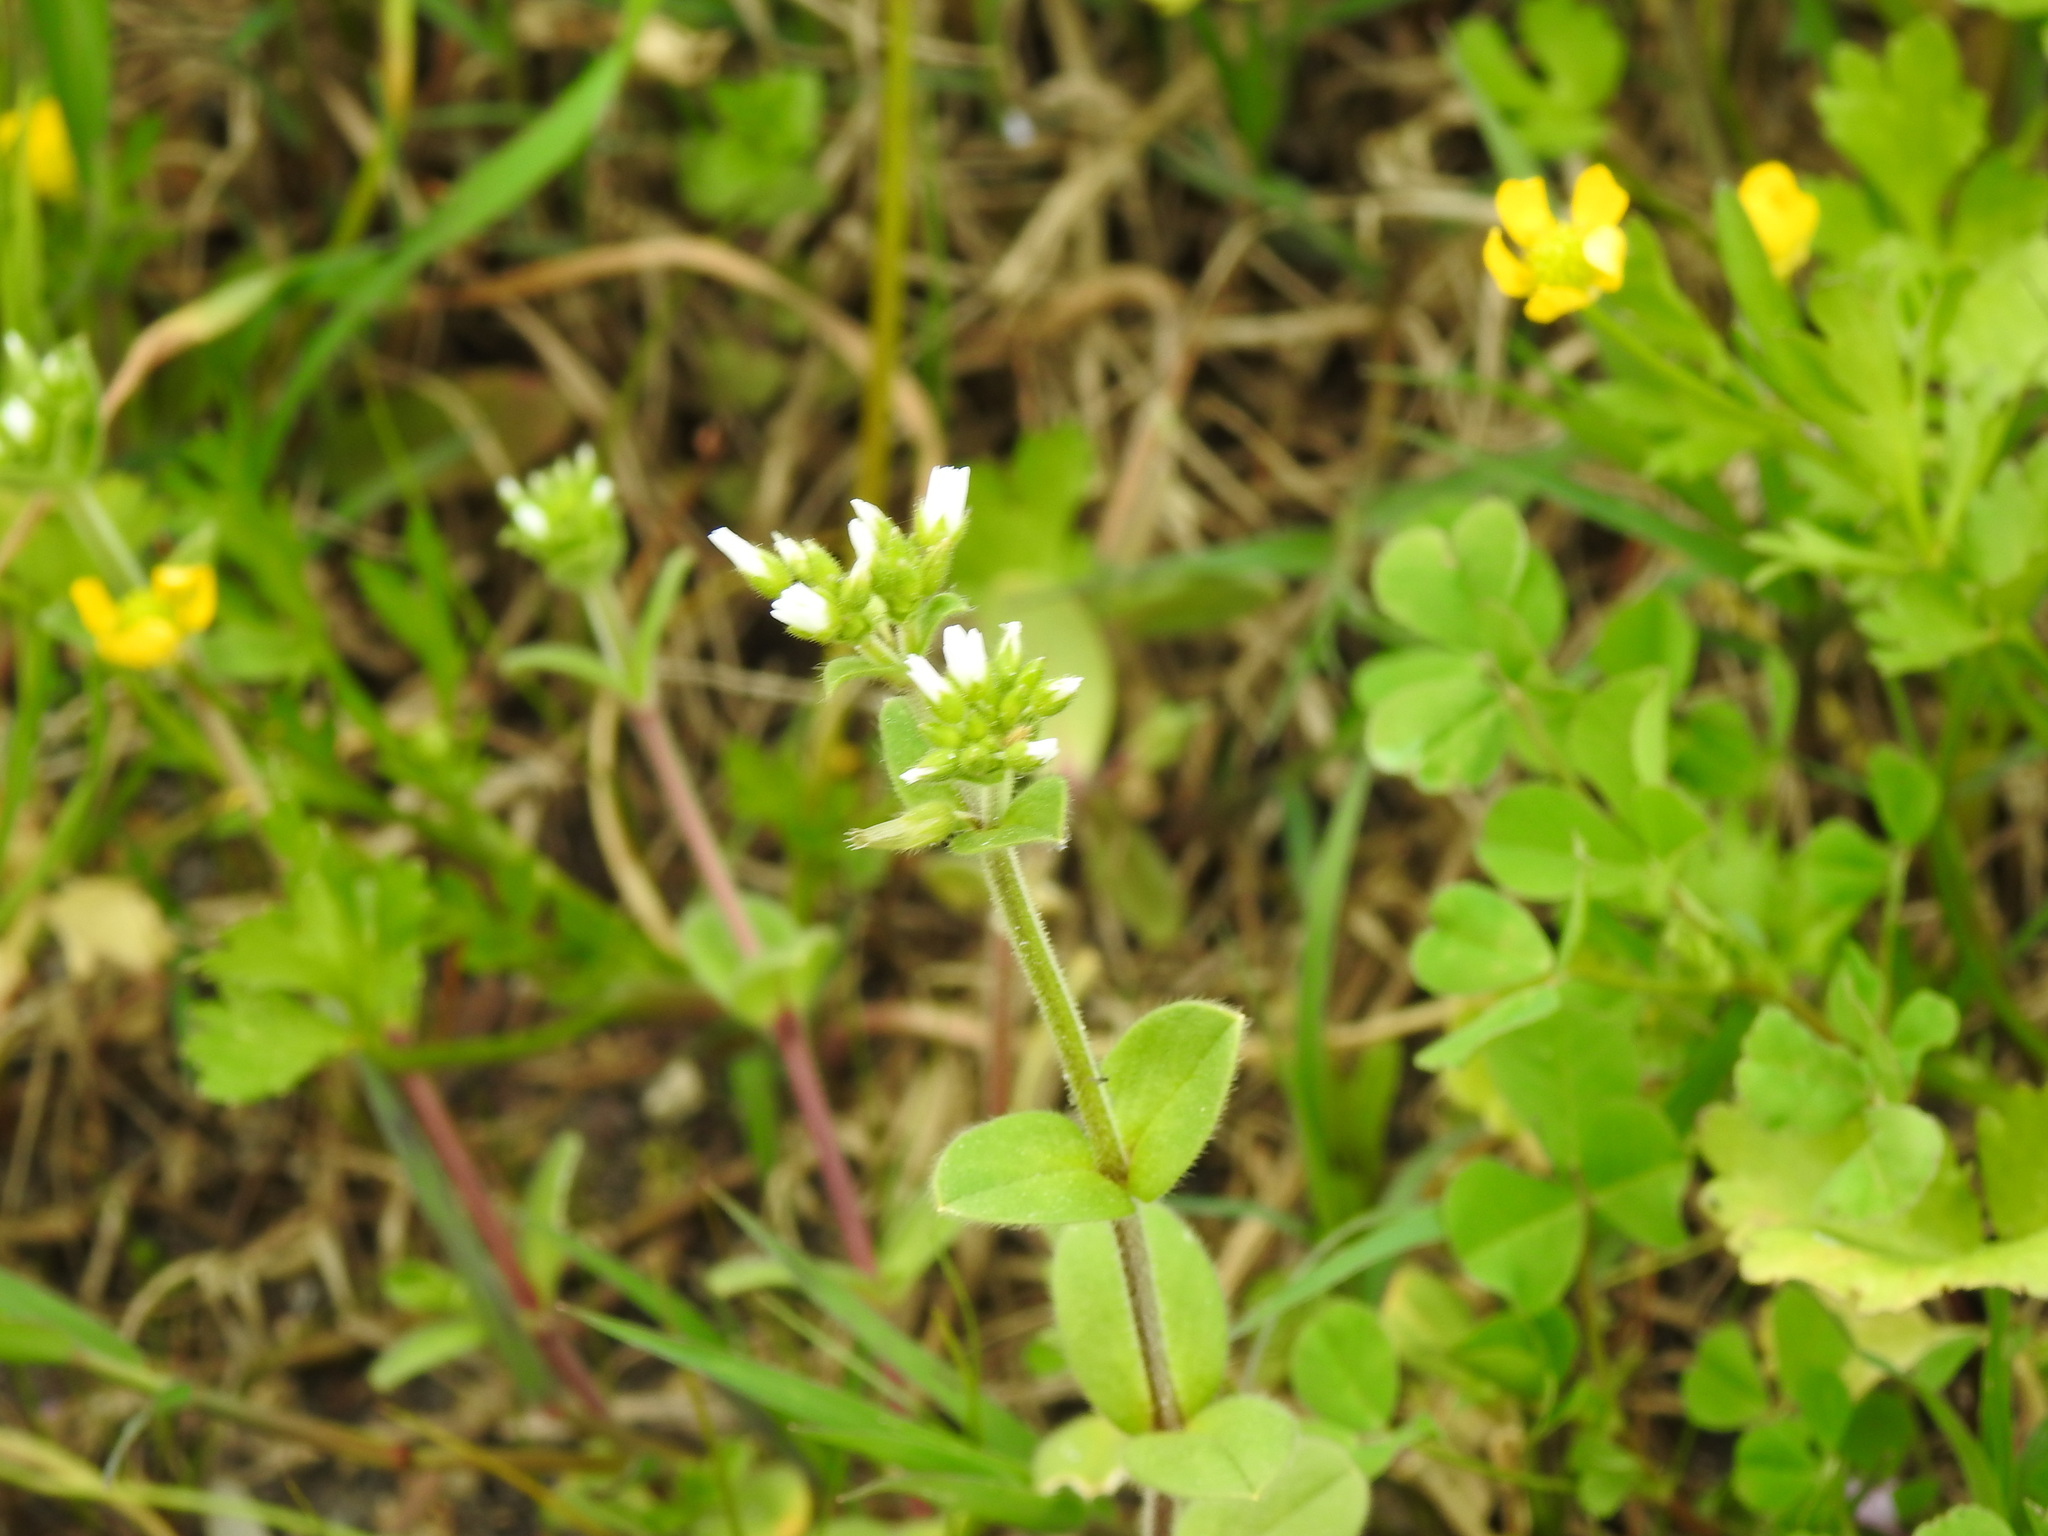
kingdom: Plantae
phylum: Tracheophyta
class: Magnoliopsida
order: Caryophyllales
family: Caryophyllaceae
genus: Cerastium
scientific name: Cerastium glomeratum
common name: Sticky chickweed
